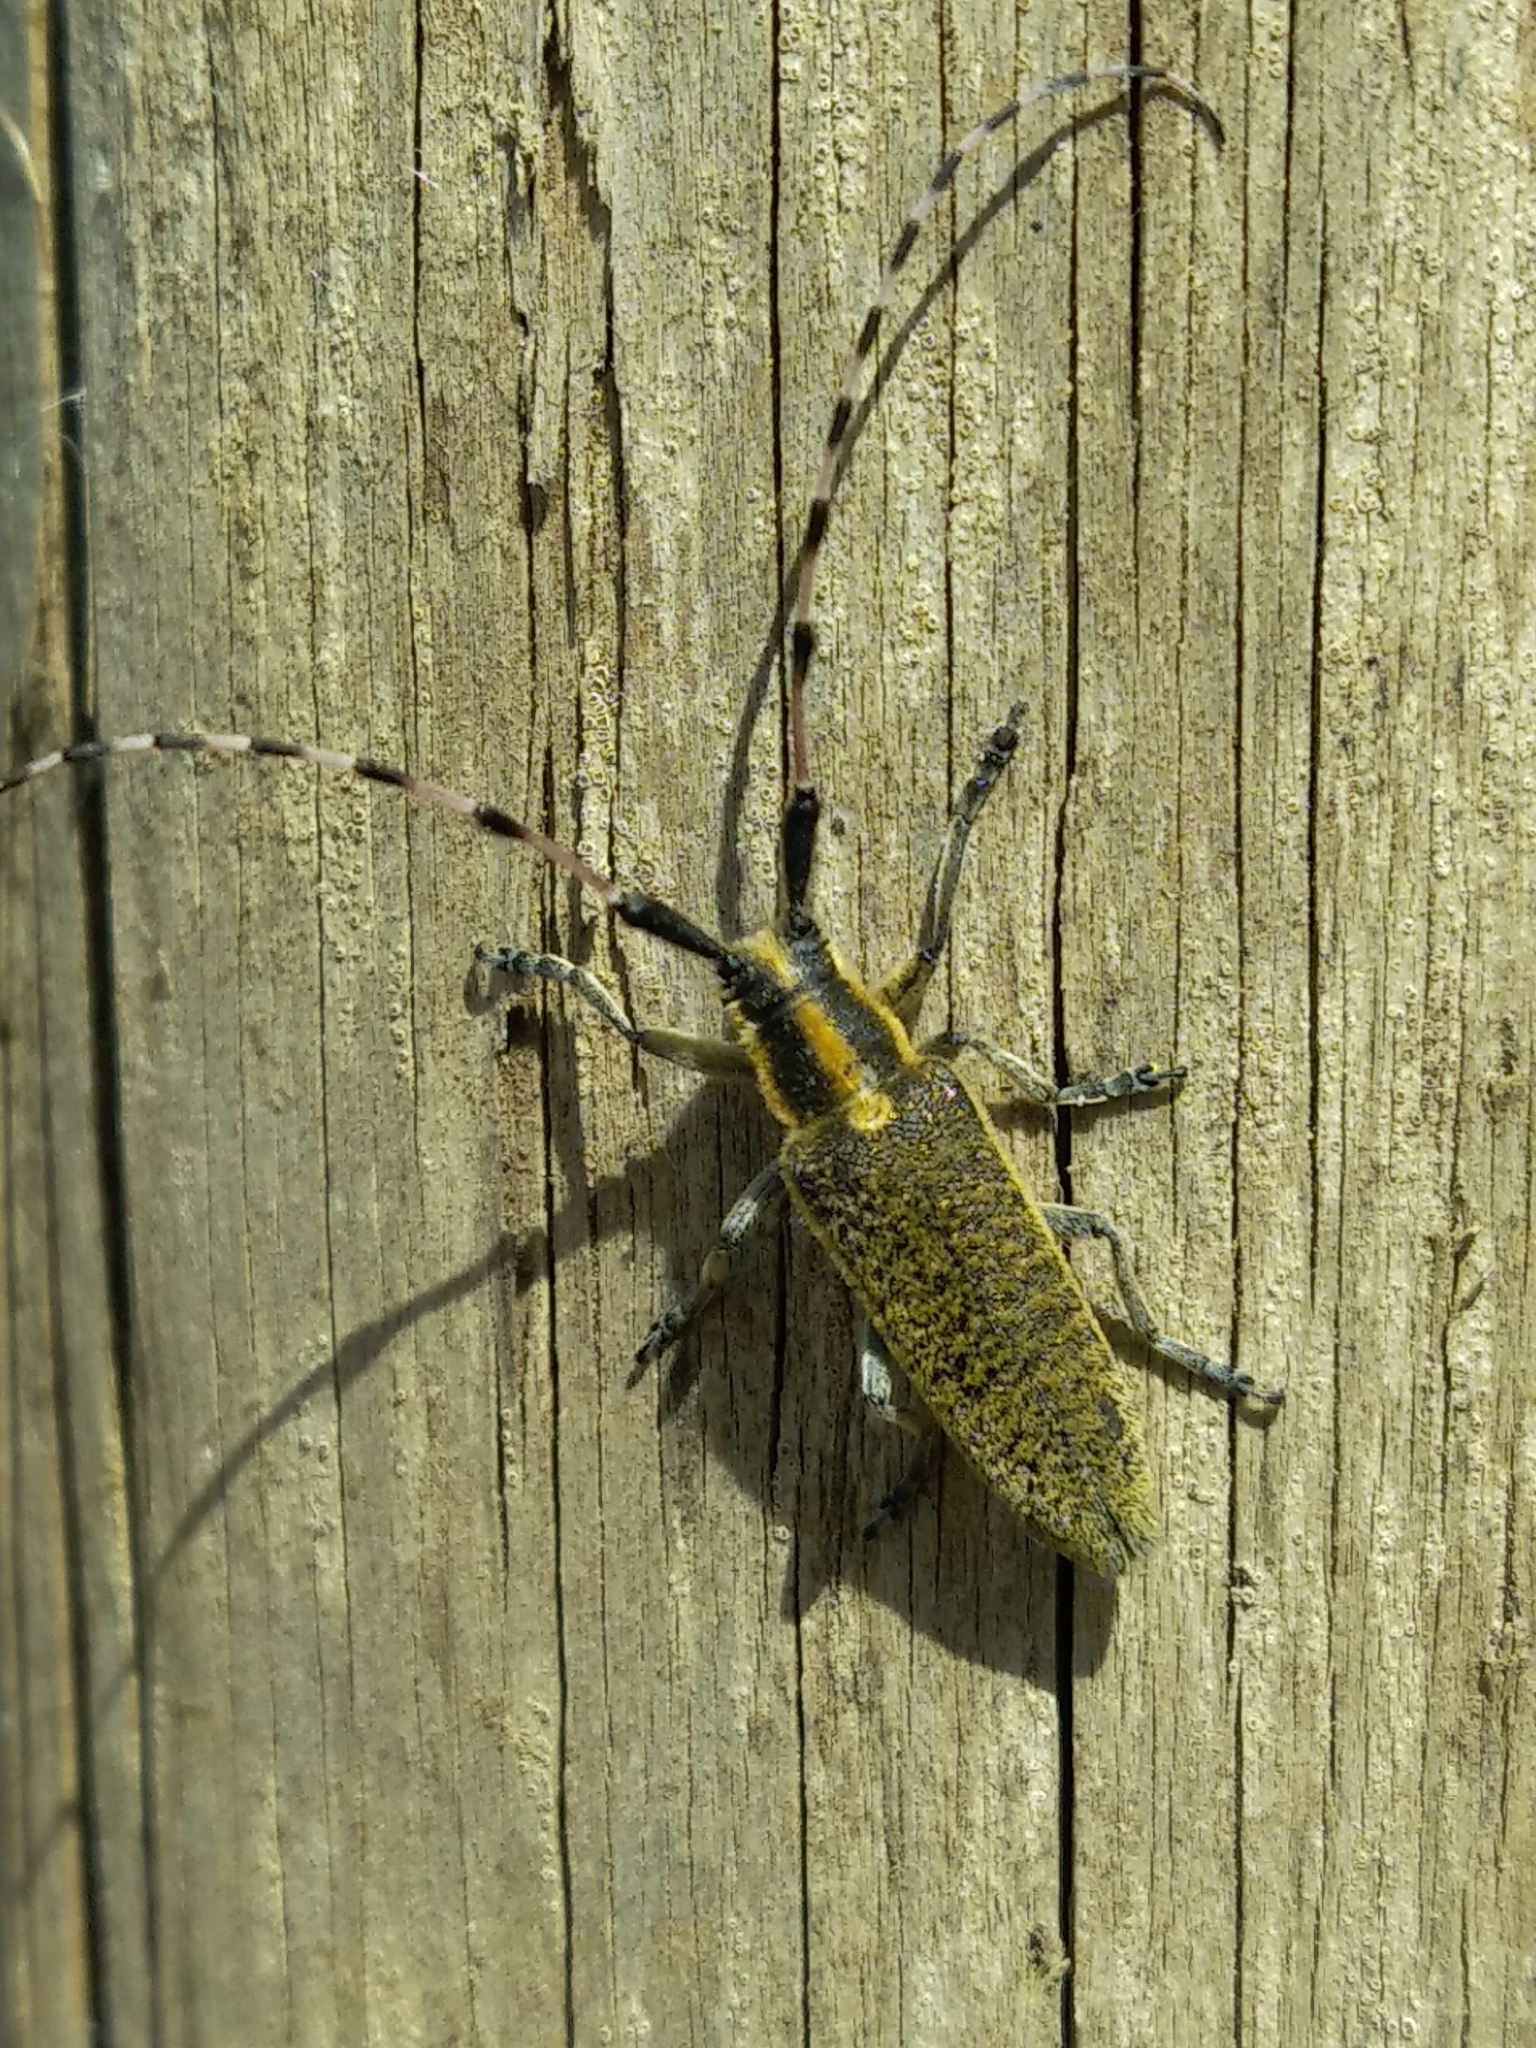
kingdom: Animalia
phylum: Arthropoda
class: Insecta
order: Coleoptera
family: Cerambycidae
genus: Agapanthia
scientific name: Agapanthia dahlii
